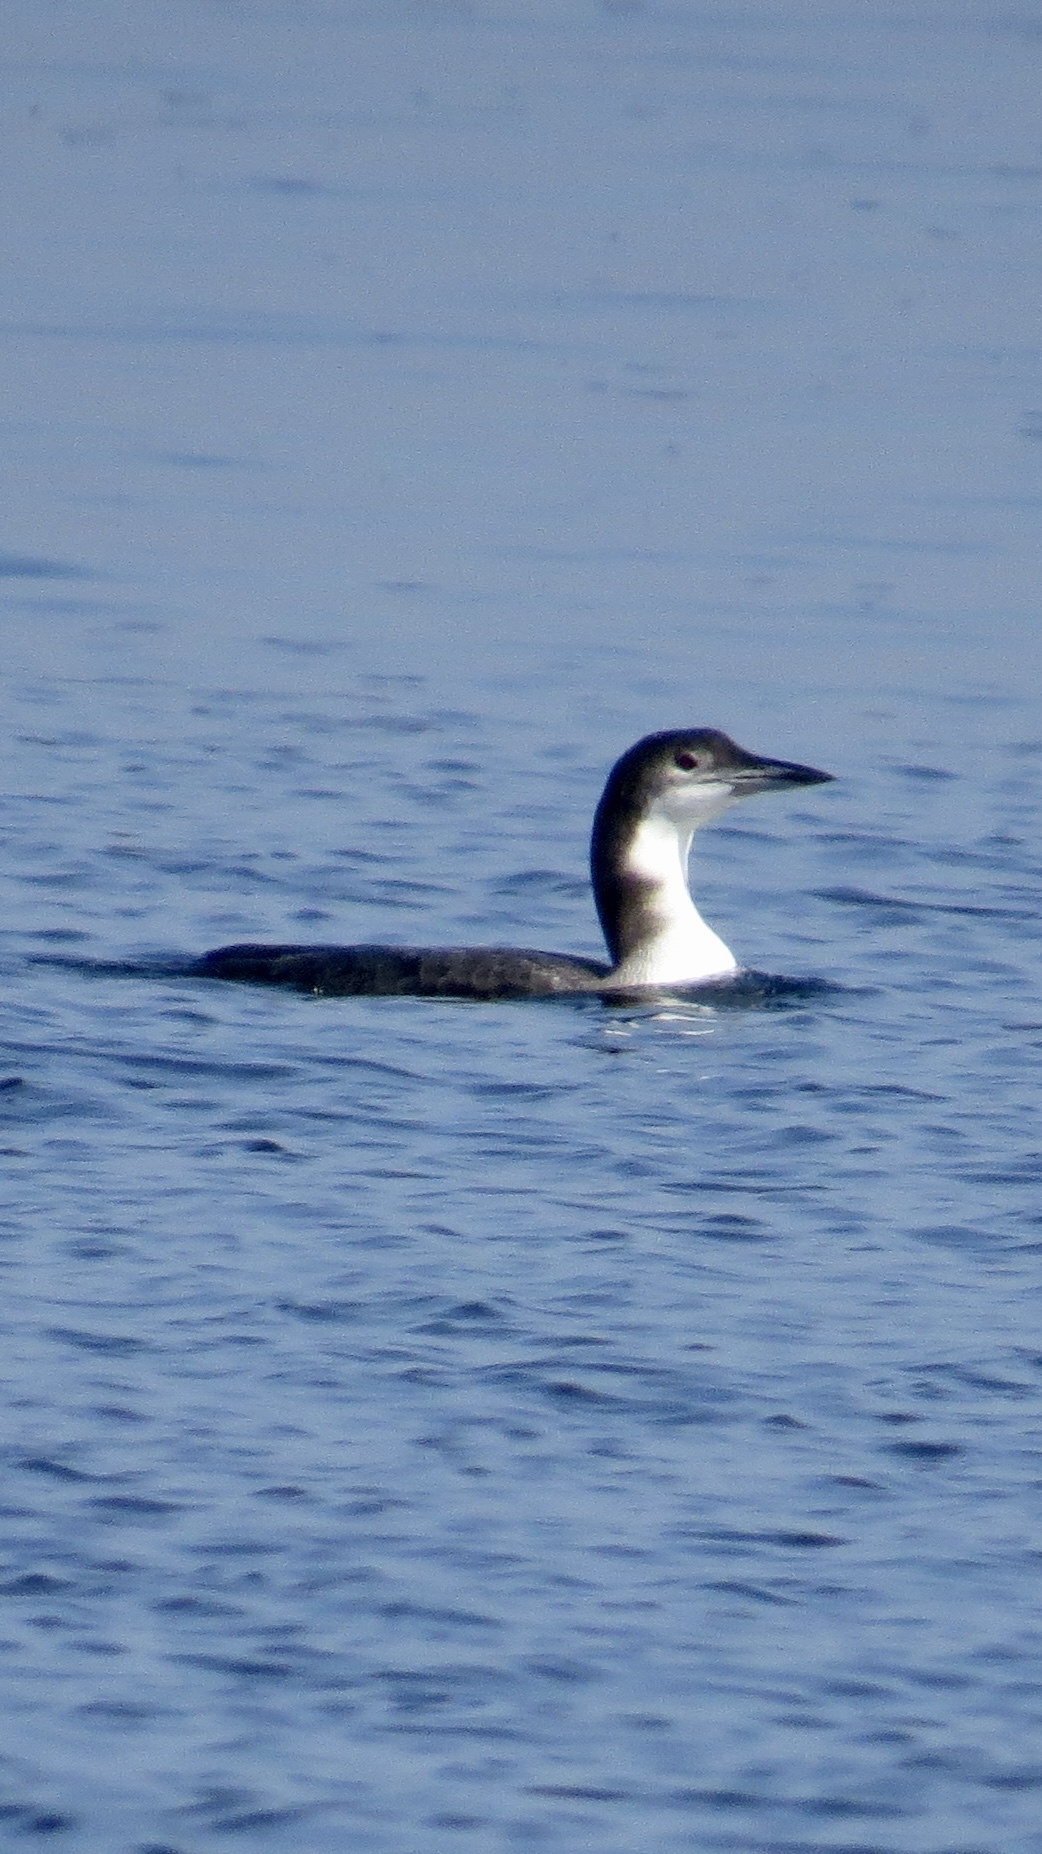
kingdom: Animalia
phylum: Chordata
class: Aves
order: Gaviiformes
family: Gaviidae
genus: Gavia
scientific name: Gavia immer
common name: Common loon
